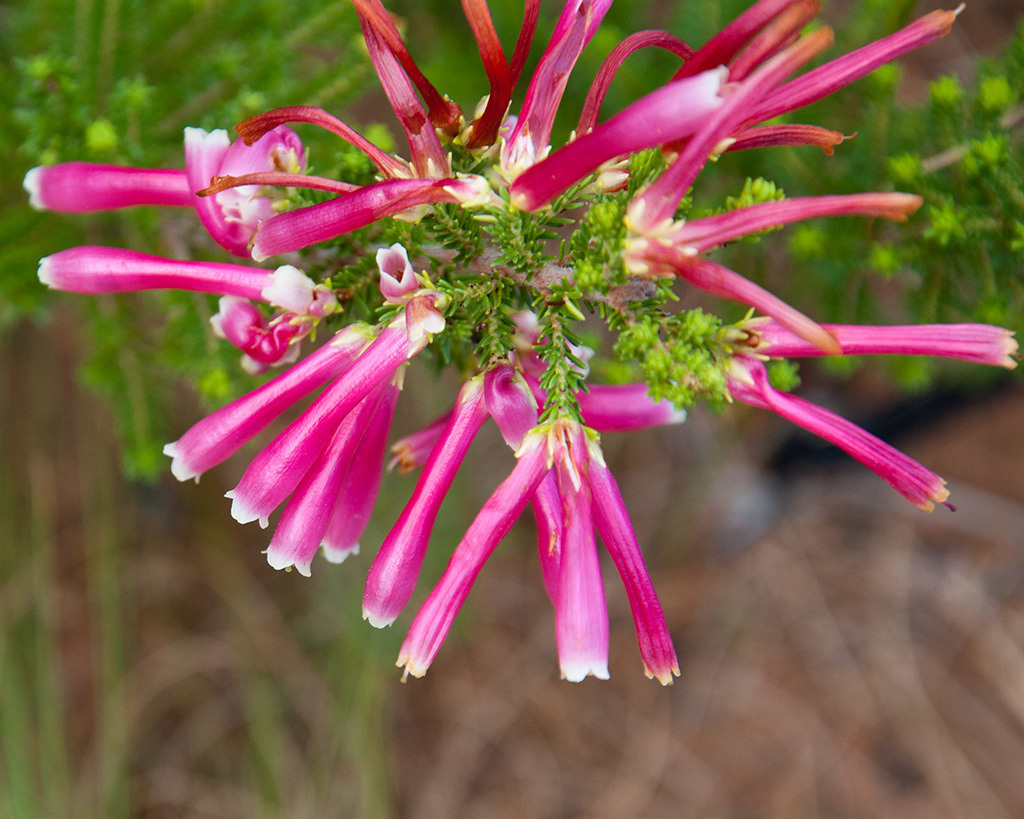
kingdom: Plantae
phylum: Tracheophyta
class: Magnoliopsida
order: Ericales
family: Ericaceae
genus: Erica
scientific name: Erica discolor
